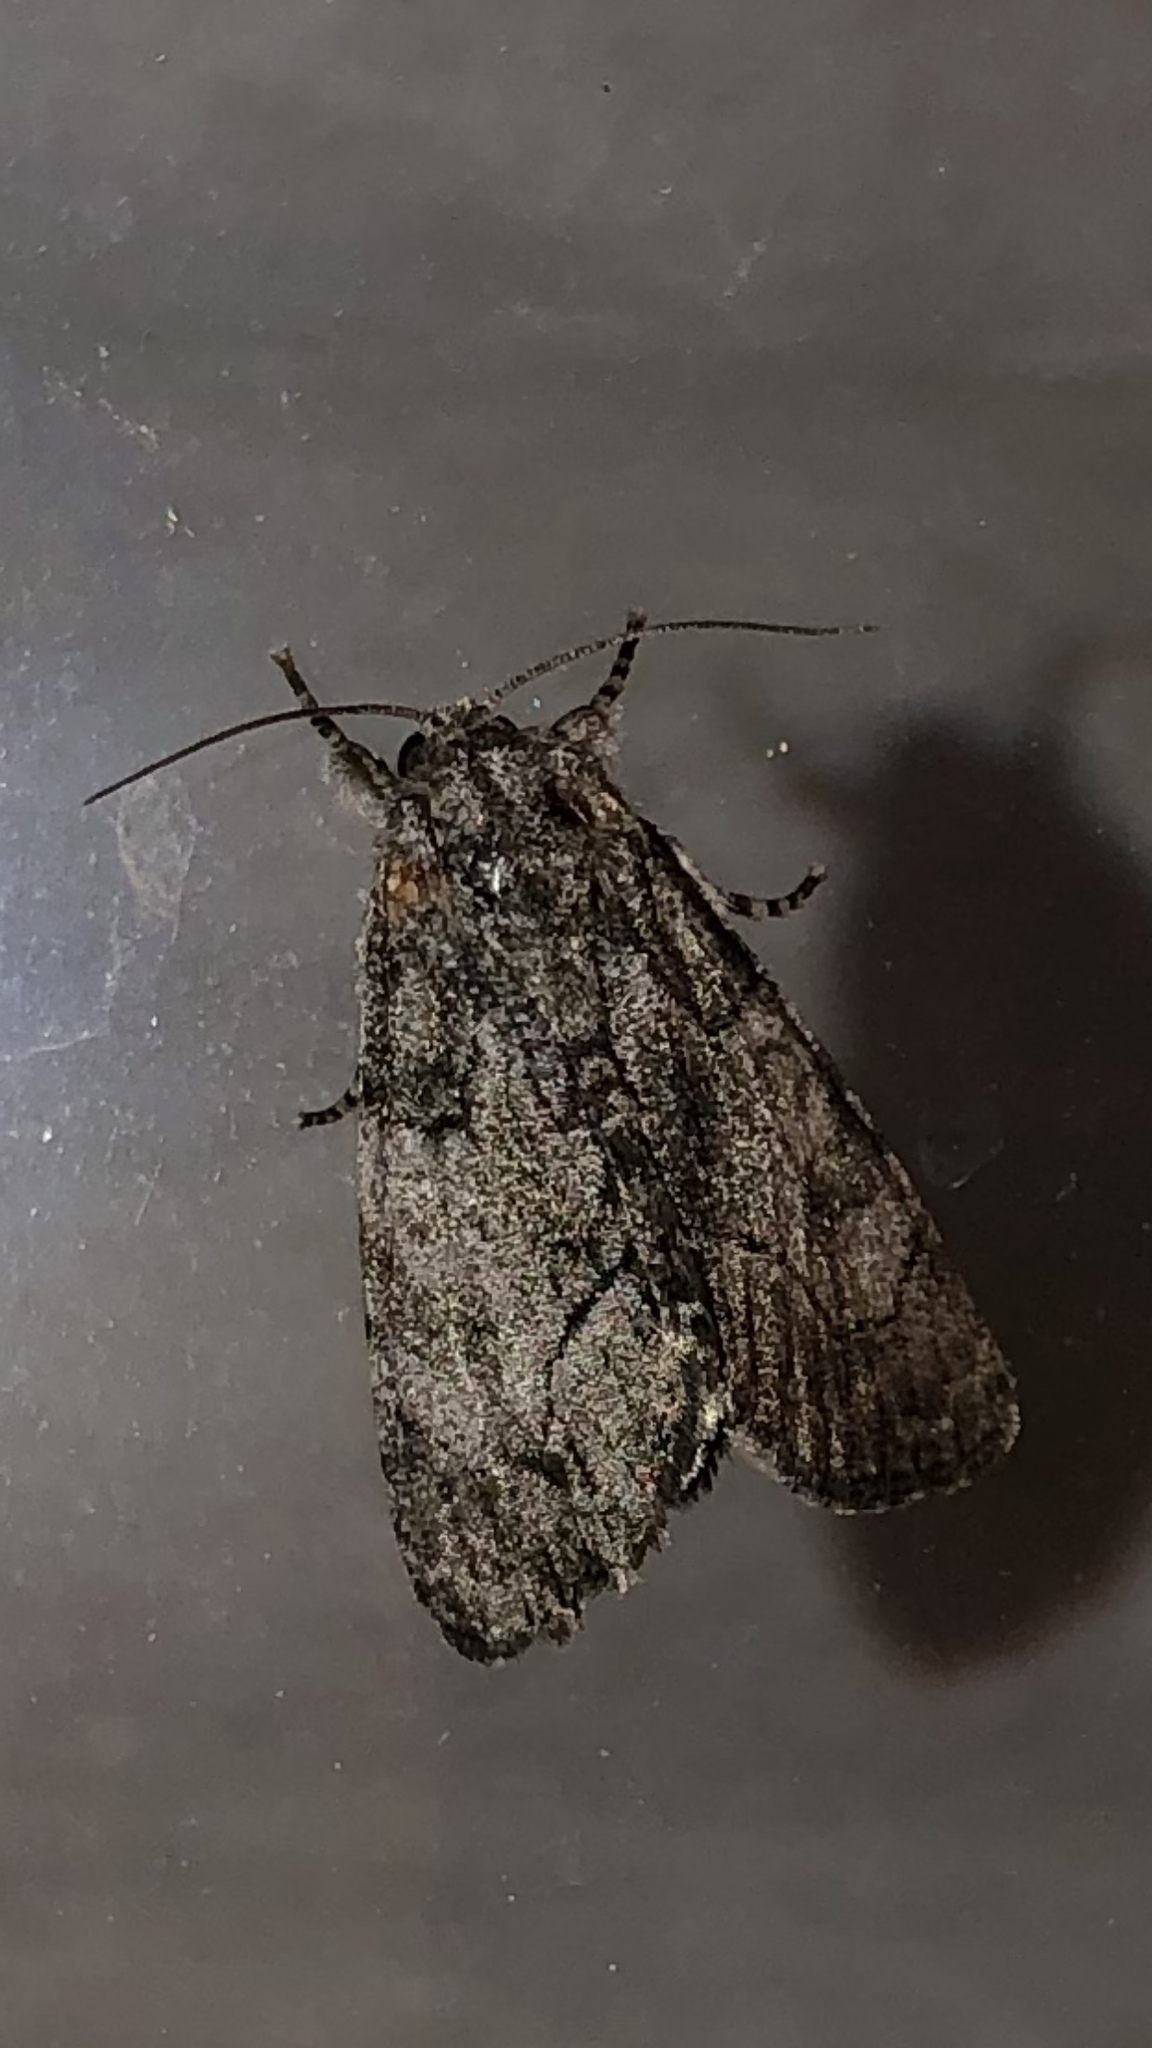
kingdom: Animalia
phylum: Arthropoda
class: Insecta
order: Lepidoptera
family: Noctuidae
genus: Raphia
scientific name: Raphia frater
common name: Brother
